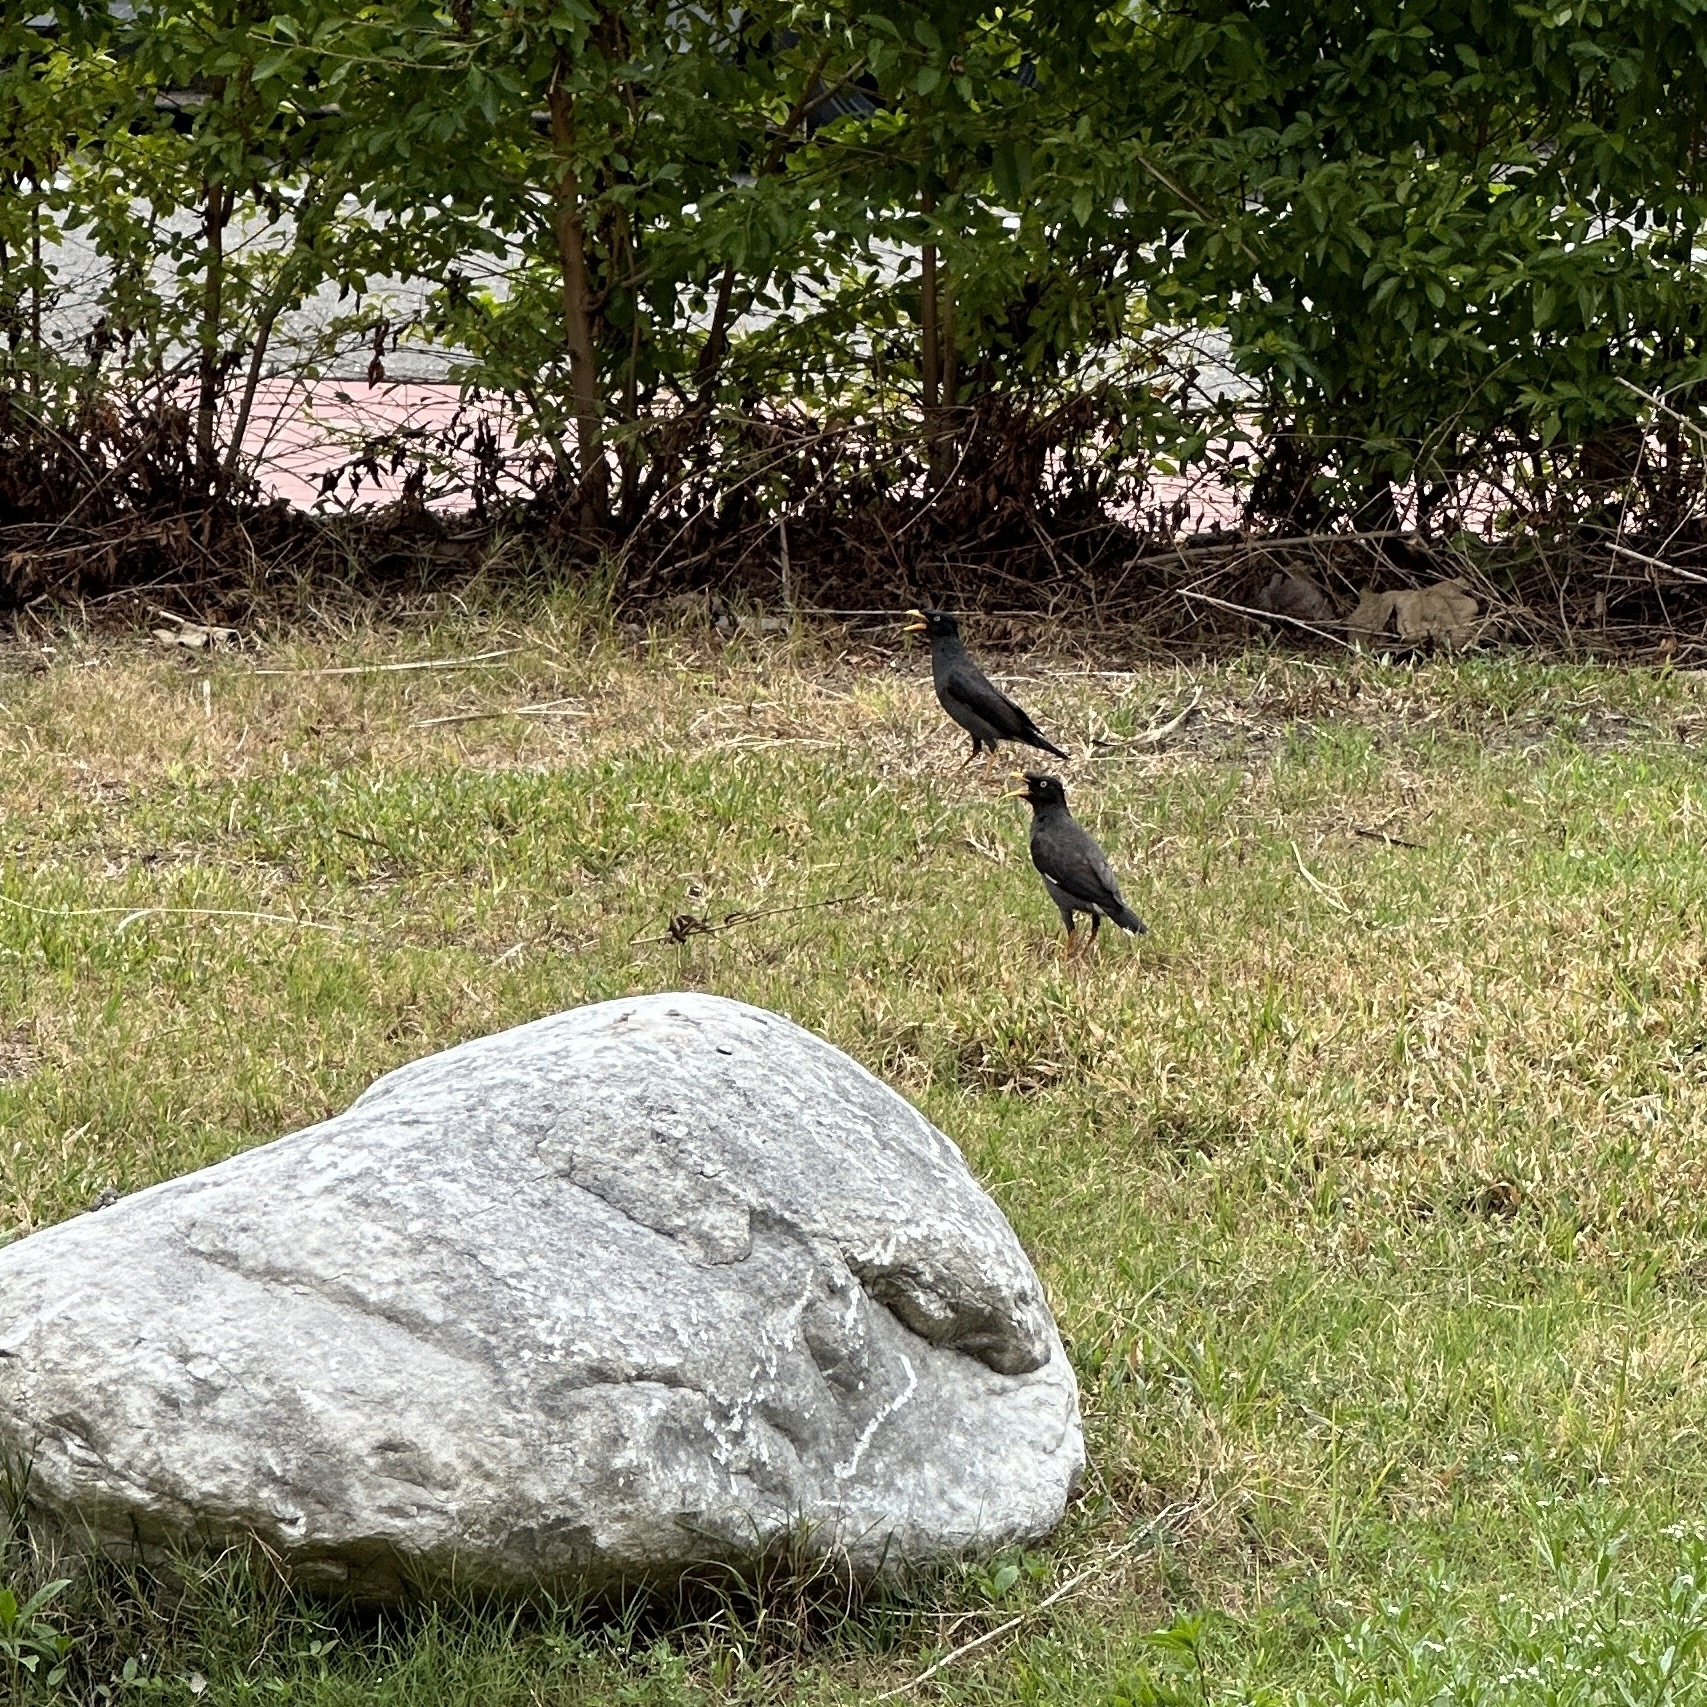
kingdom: Animalia
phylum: Chordata
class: Aves
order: Passeriformes
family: Sturnidae
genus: Acridotheres
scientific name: Acridotheres javanicus
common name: Javan myna
